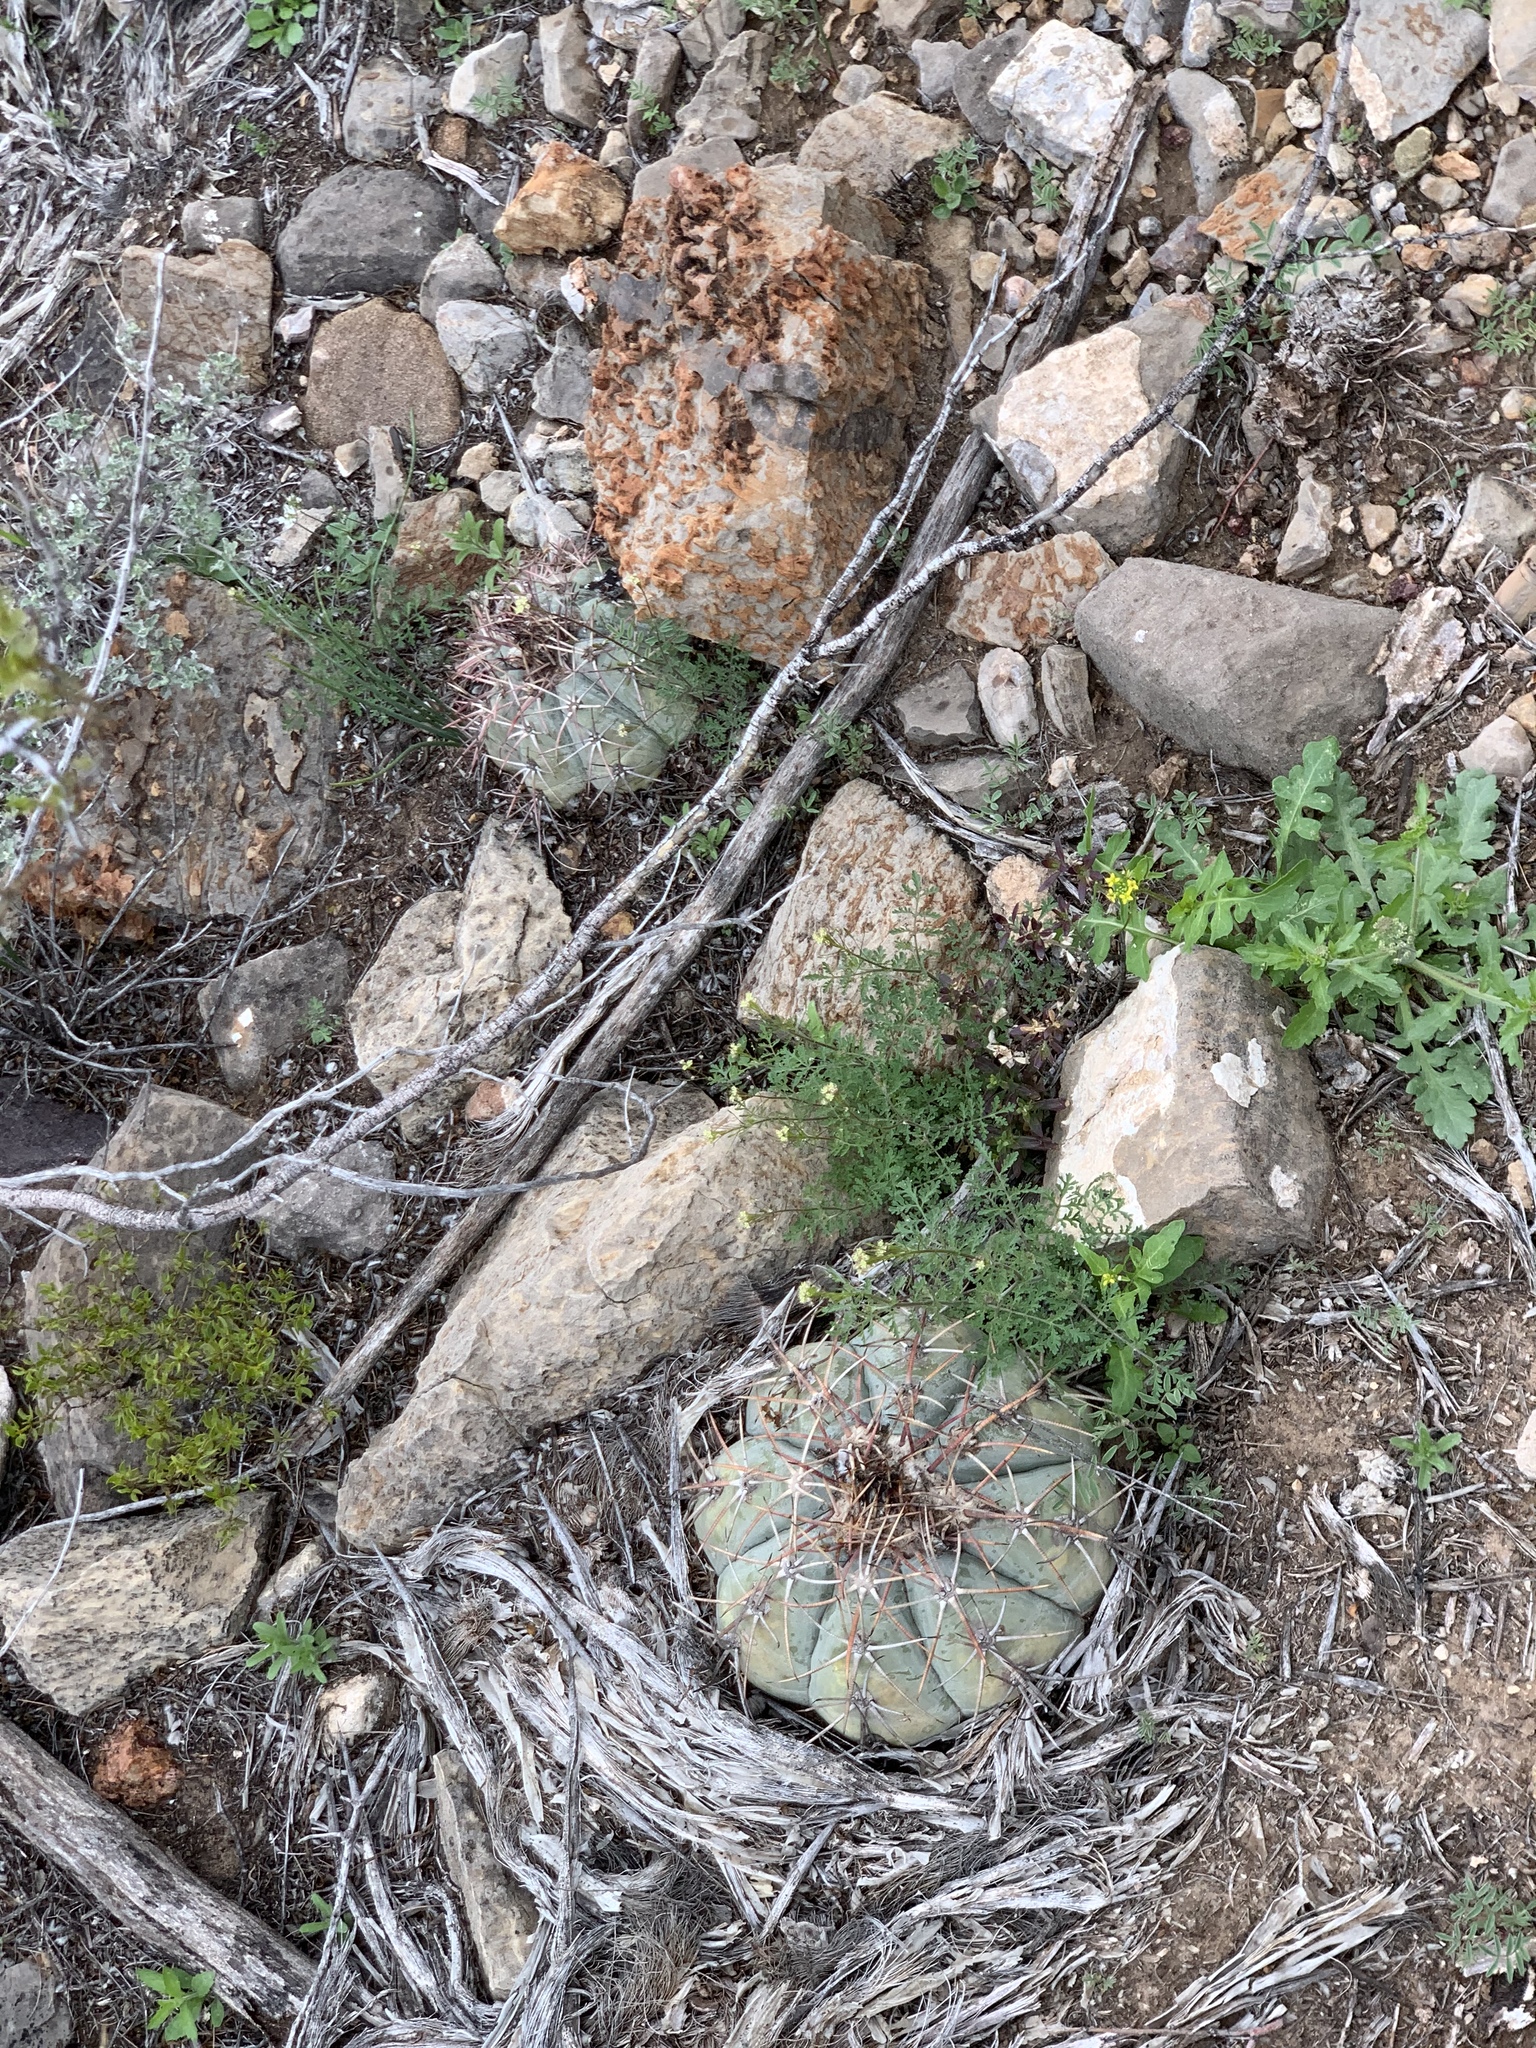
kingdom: Plantae
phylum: Tracheophyta
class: Magnoliopsida
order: Caryophyllales
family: Cactaceae
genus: Echinocactus
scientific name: Echinocactus horizonthalonius
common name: Devilshead
